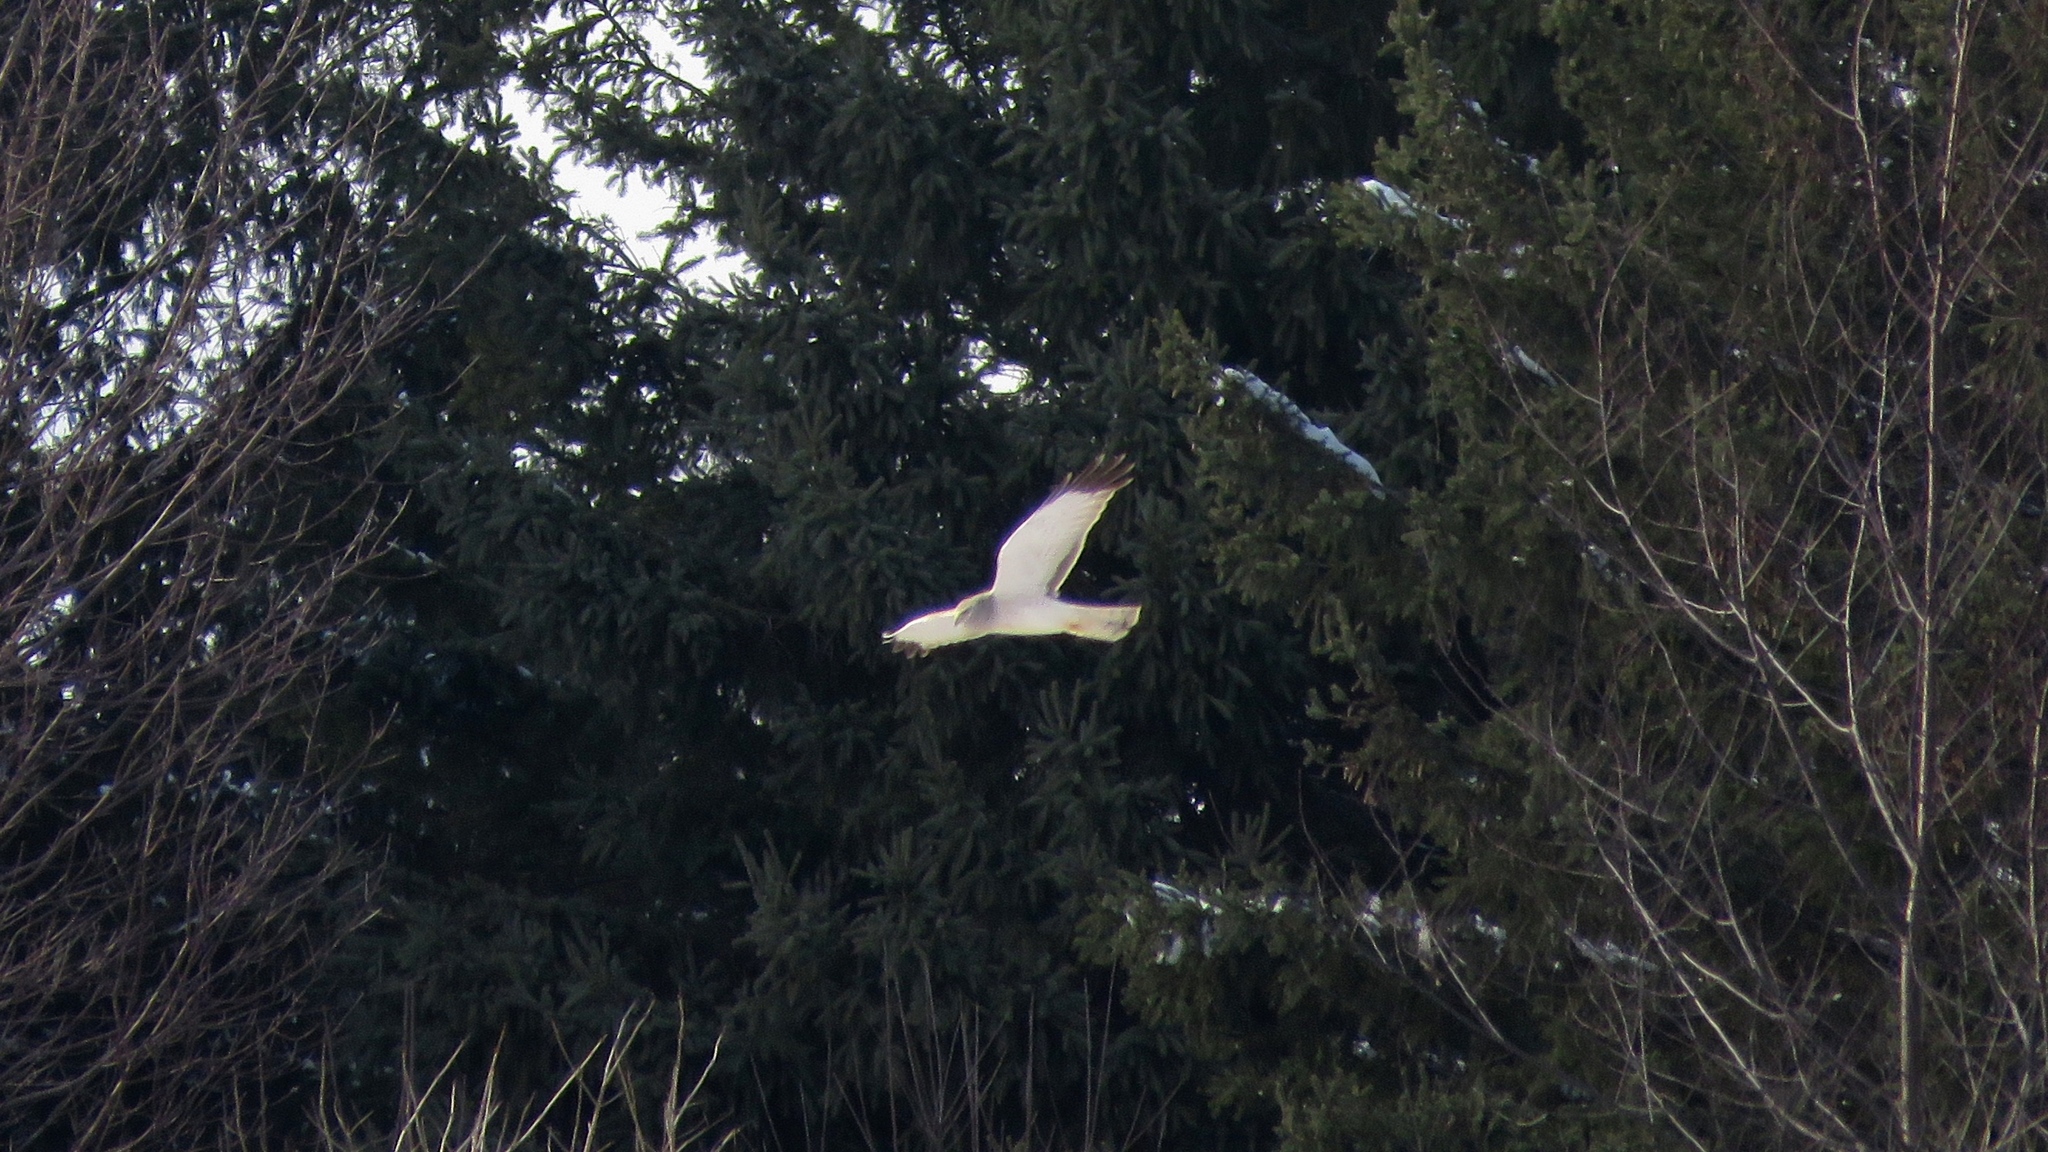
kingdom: Animalia
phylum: Chordata
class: Aves
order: Accipitriformes
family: Accipitridae
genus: Circus
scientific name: Circus cyaneus
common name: Hen harrier
